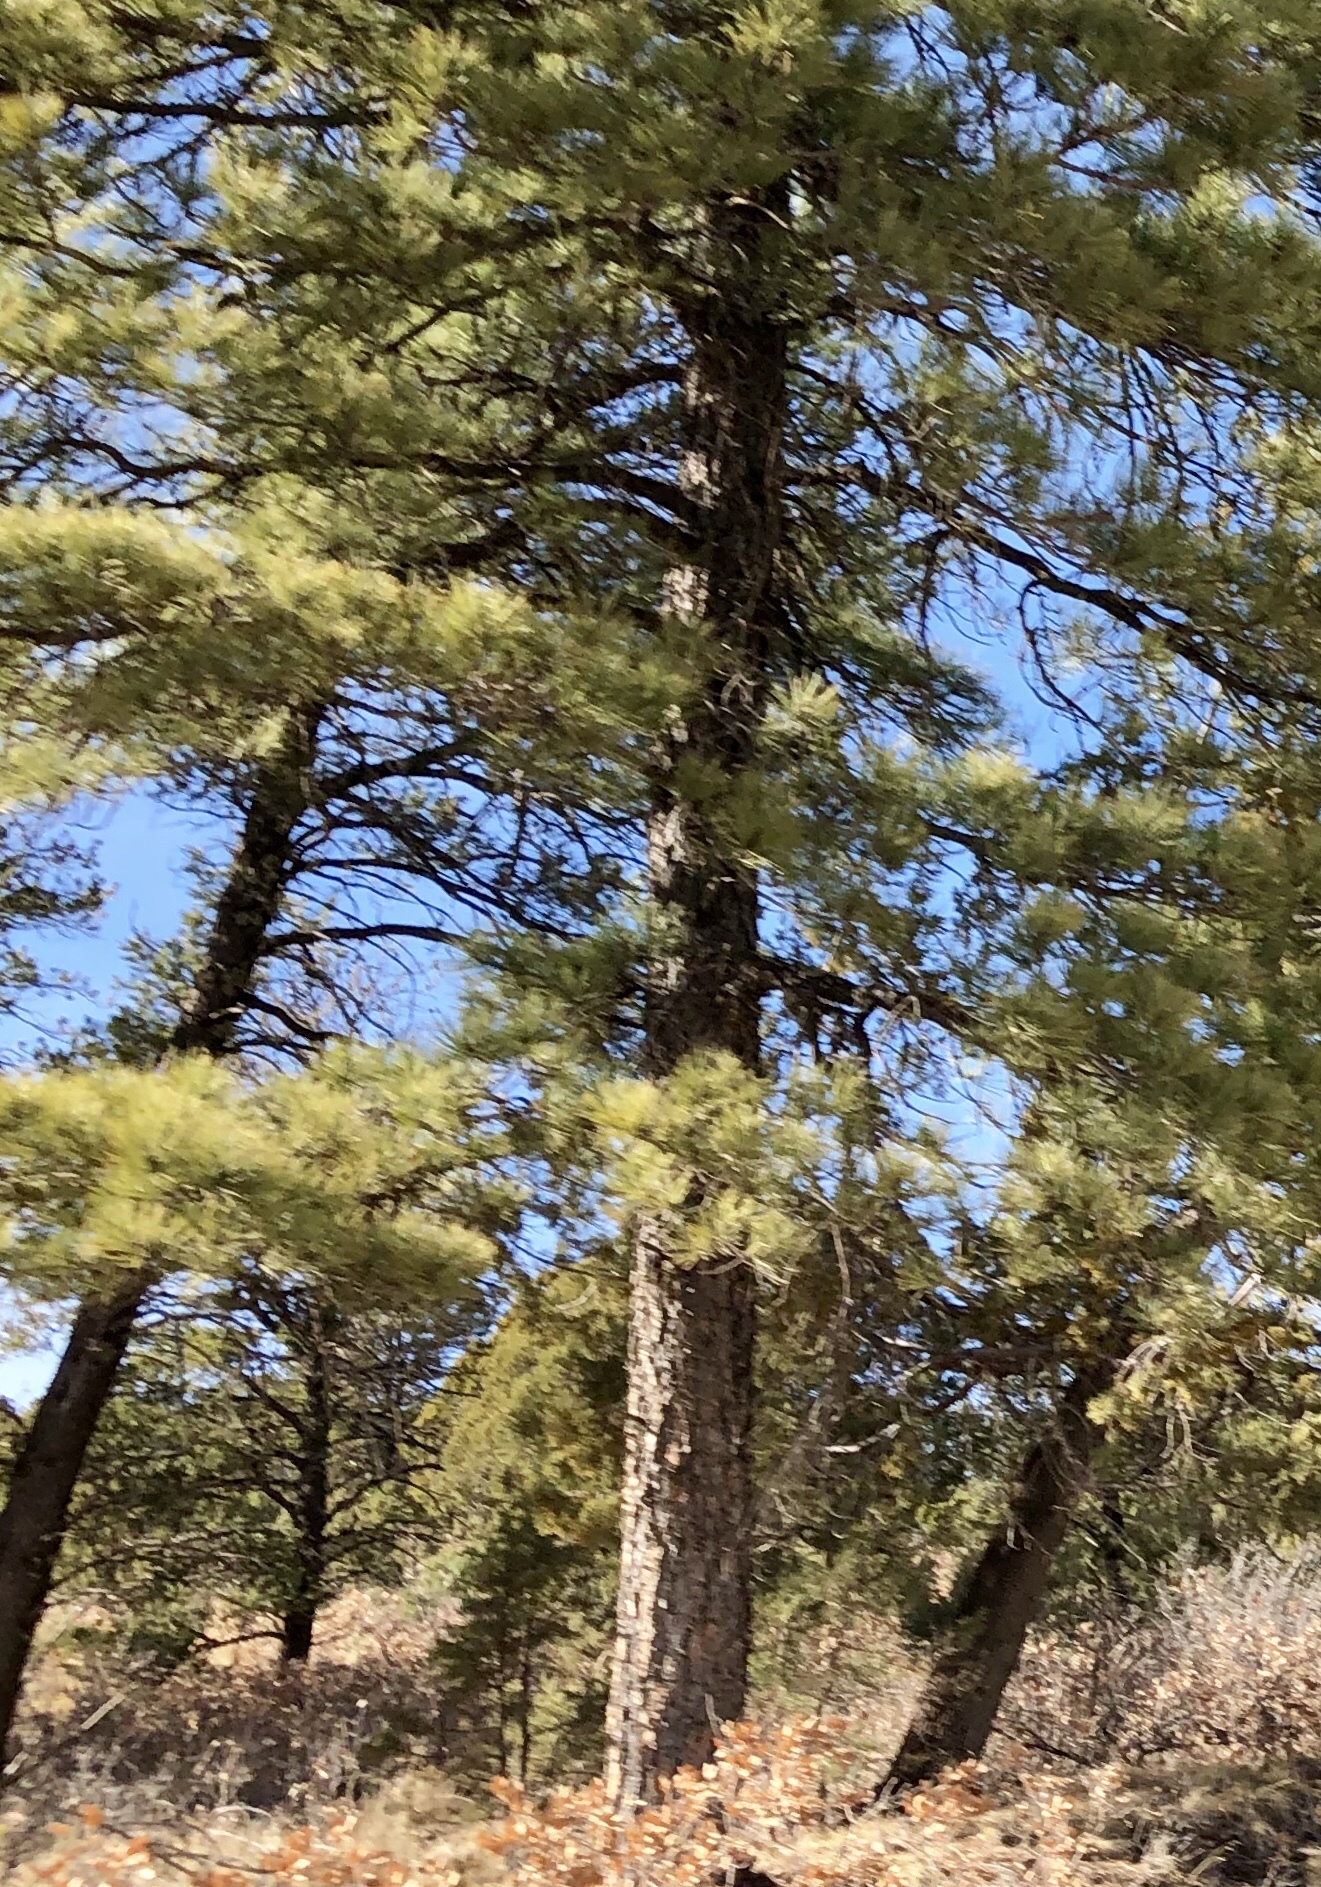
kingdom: Plantae
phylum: Tracheophyta
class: Pinopsida
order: Pinales
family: Pinaceae
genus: Pinus
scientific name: Pinus ponderosa
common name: Western yellow-pine
